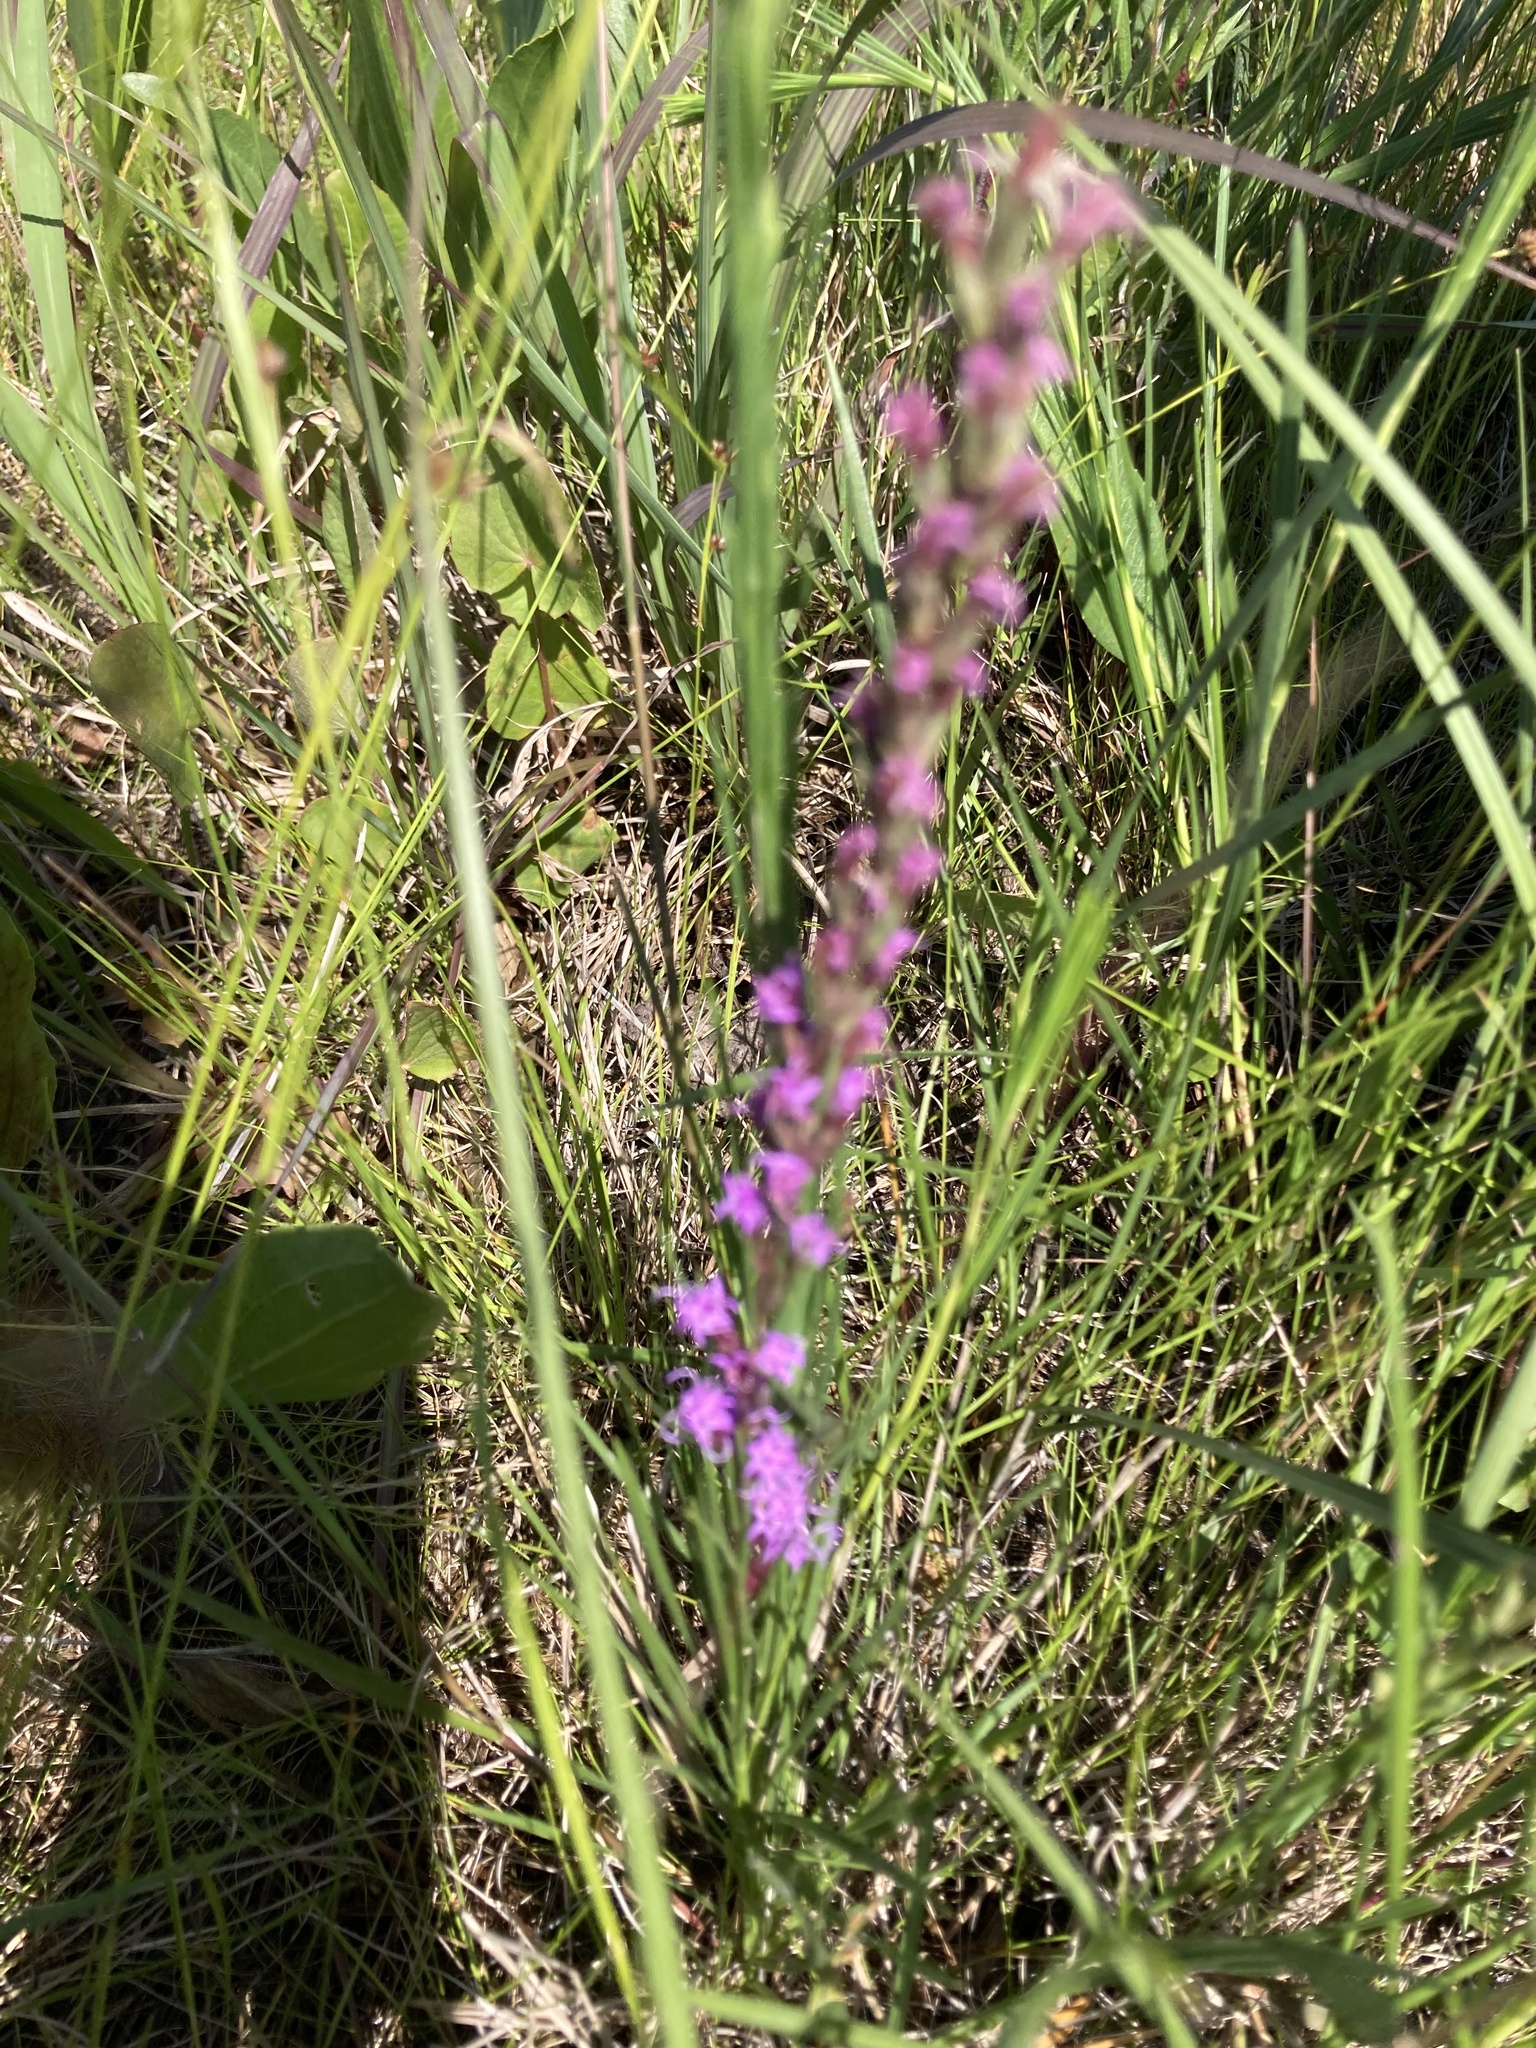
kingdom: Plantae
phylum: Tracheophyta
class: Magnoliopsida
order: Asterales
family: Asteraceae
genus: Liatris
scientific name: Liatris acidota
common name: Gulf coast gayfeather
